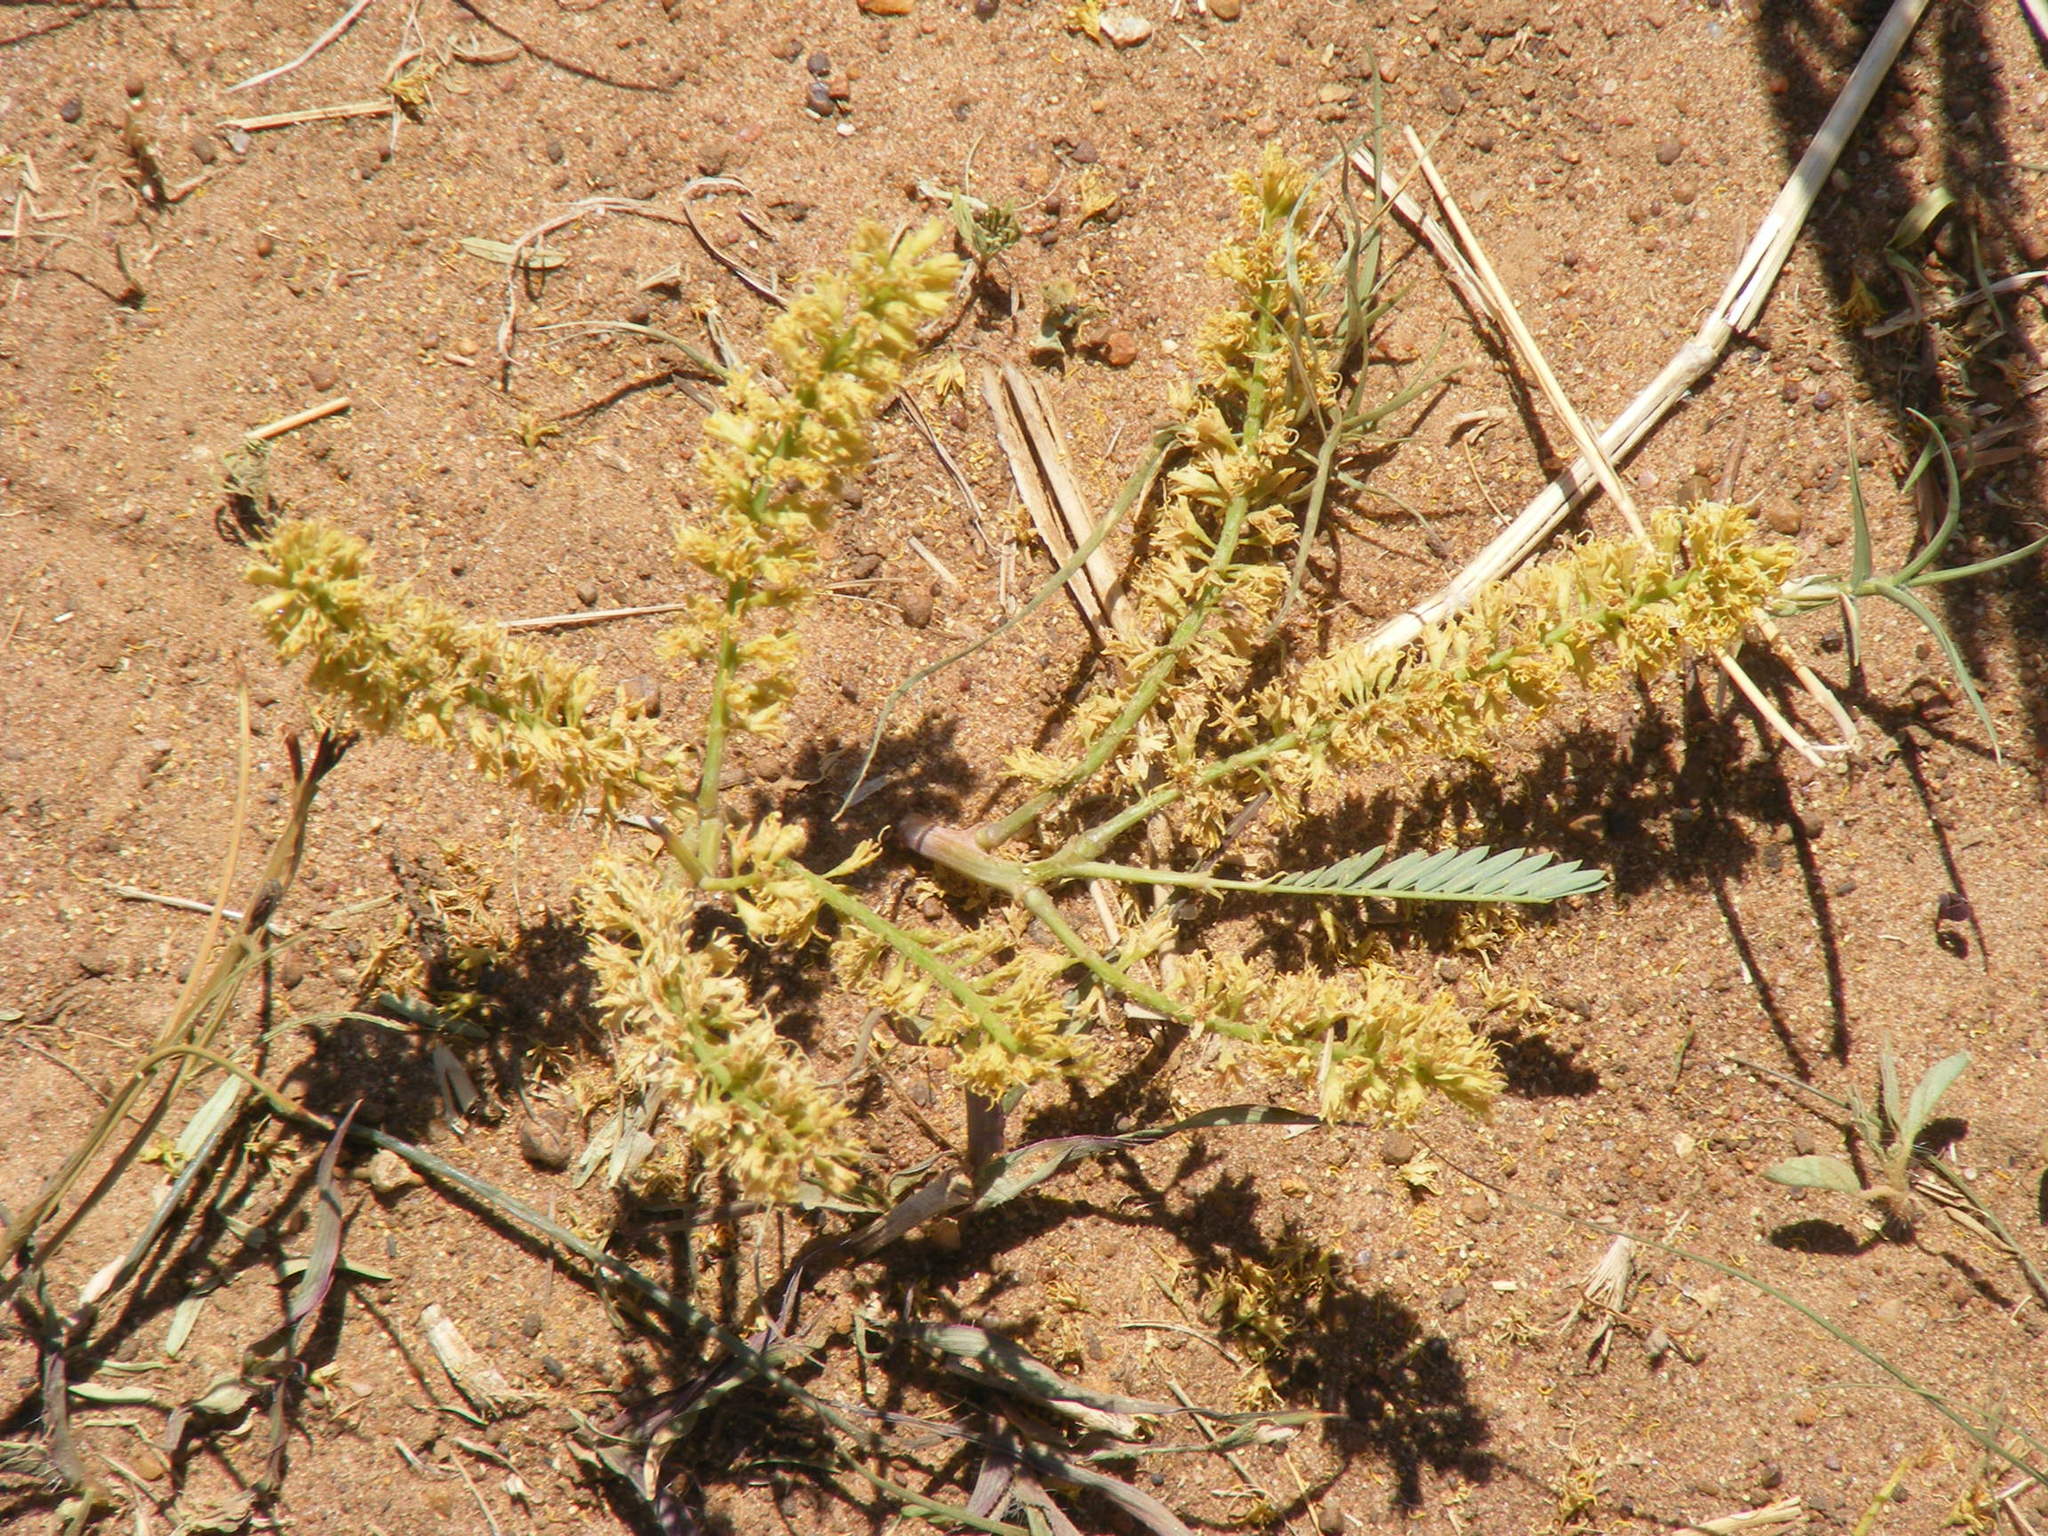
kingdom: Plantae
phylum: Tracheophyta
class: Magnoliopsida
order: Fabales
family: Fabaceae
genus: Elephantorrhiza
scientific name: Elephantorrhiza elephantina
